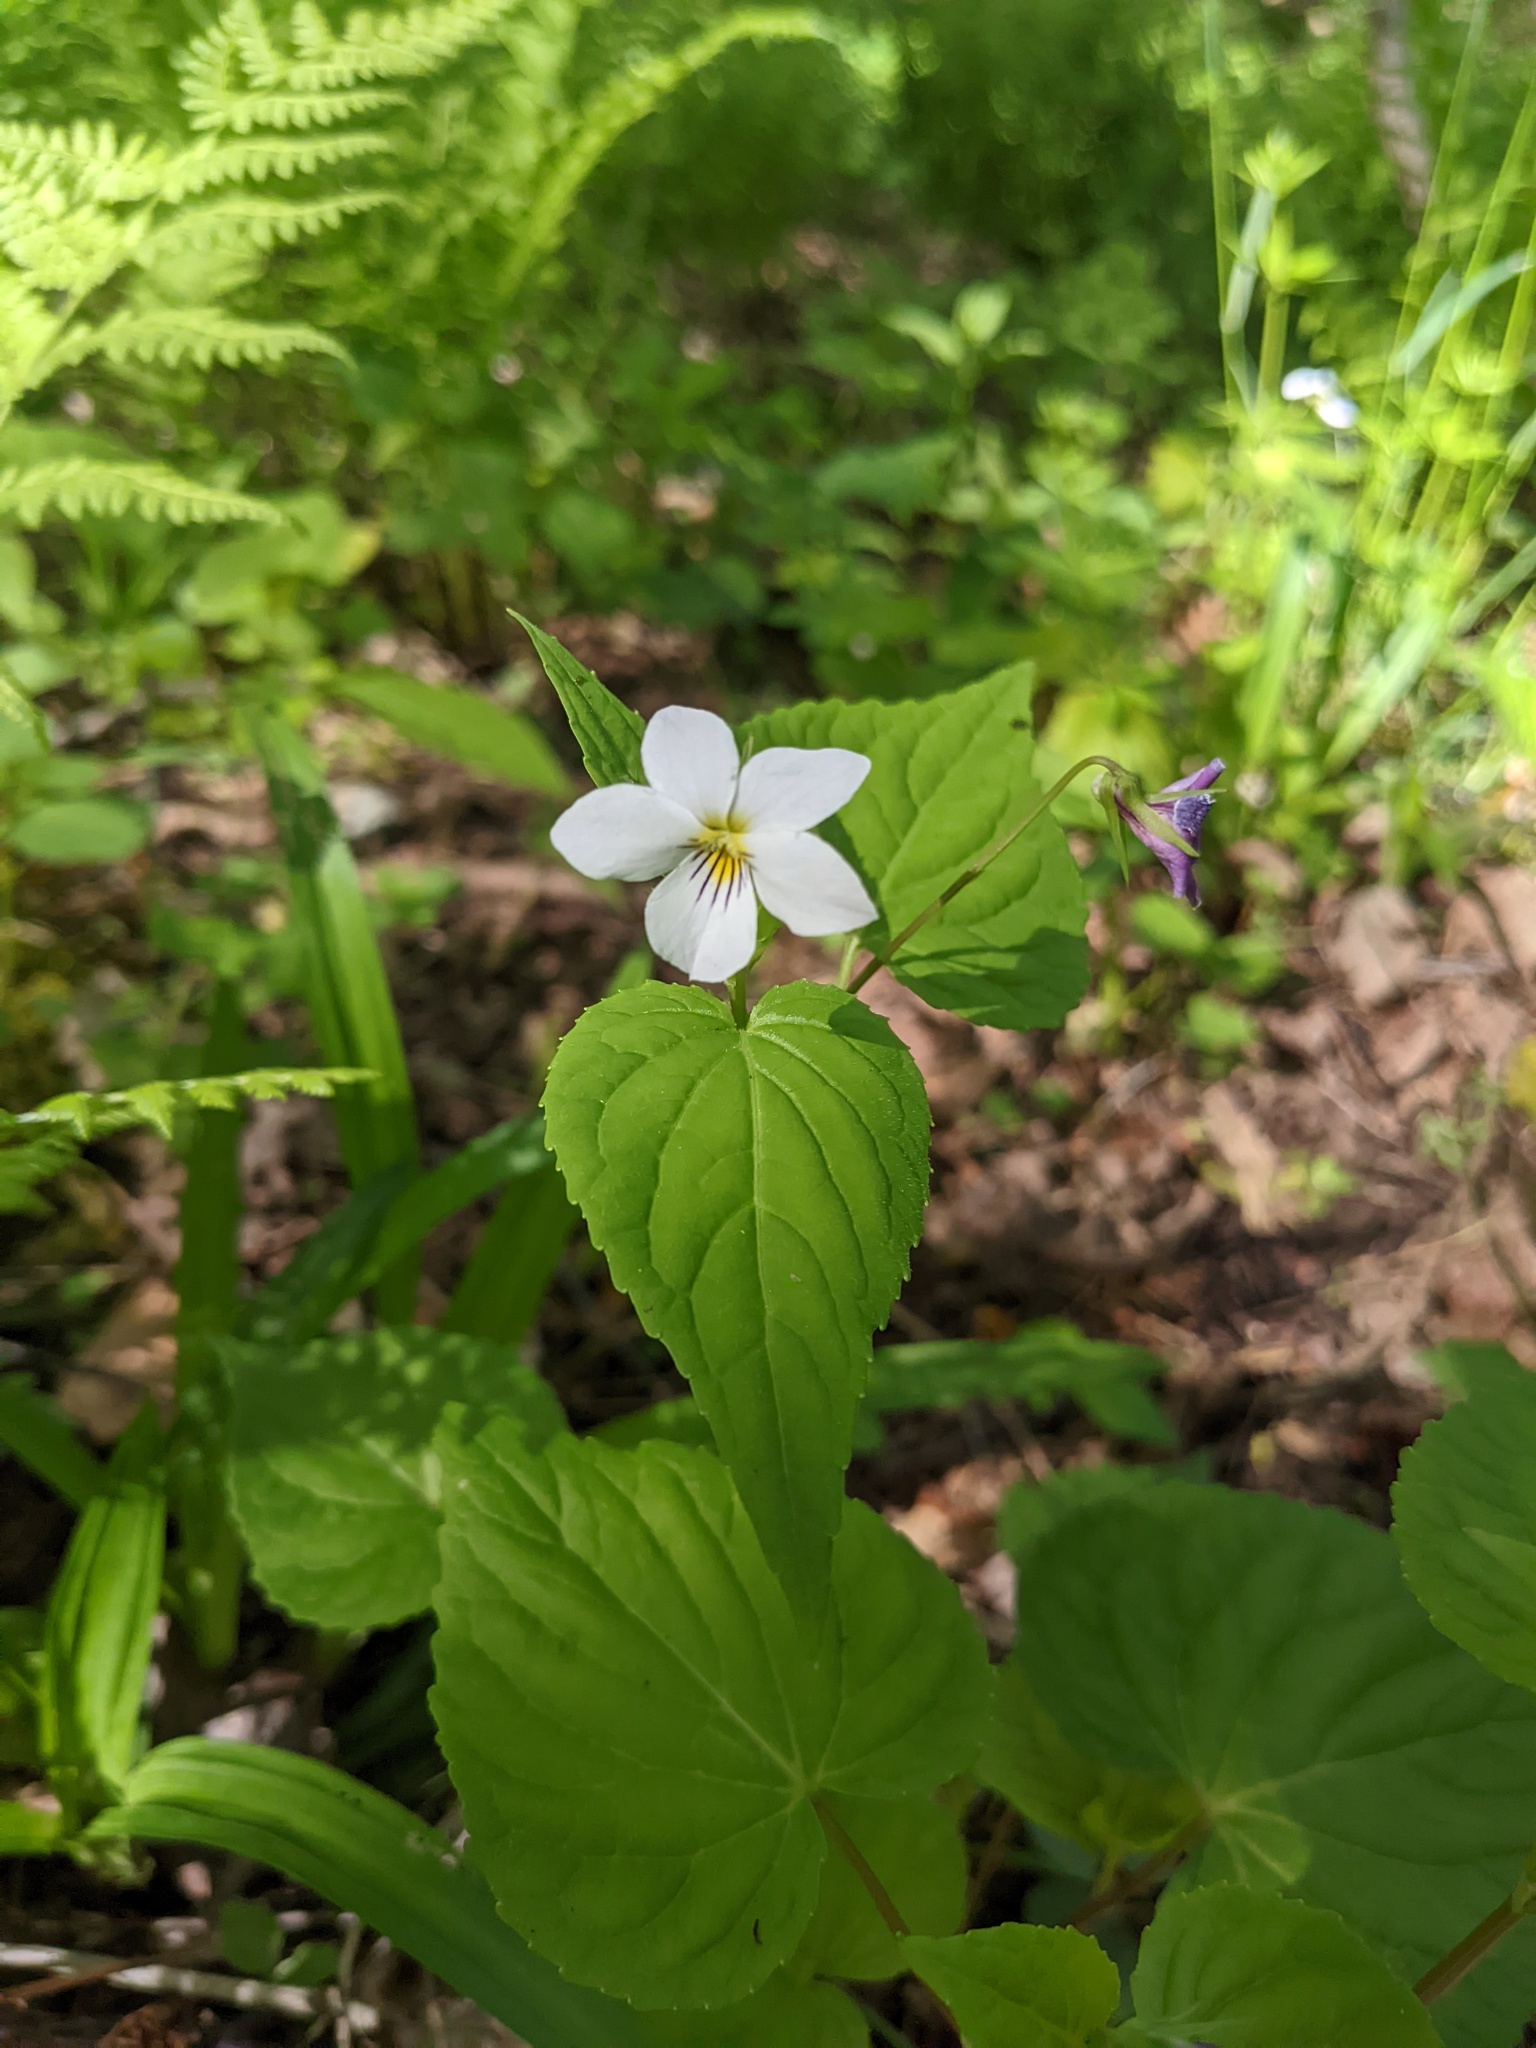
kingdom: Plantae
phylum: Tracheophyta
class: Magnoliopsida
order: Malpighiales
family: Violaceae
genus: Viola
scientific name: Viola canadensis
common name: Canada violet
